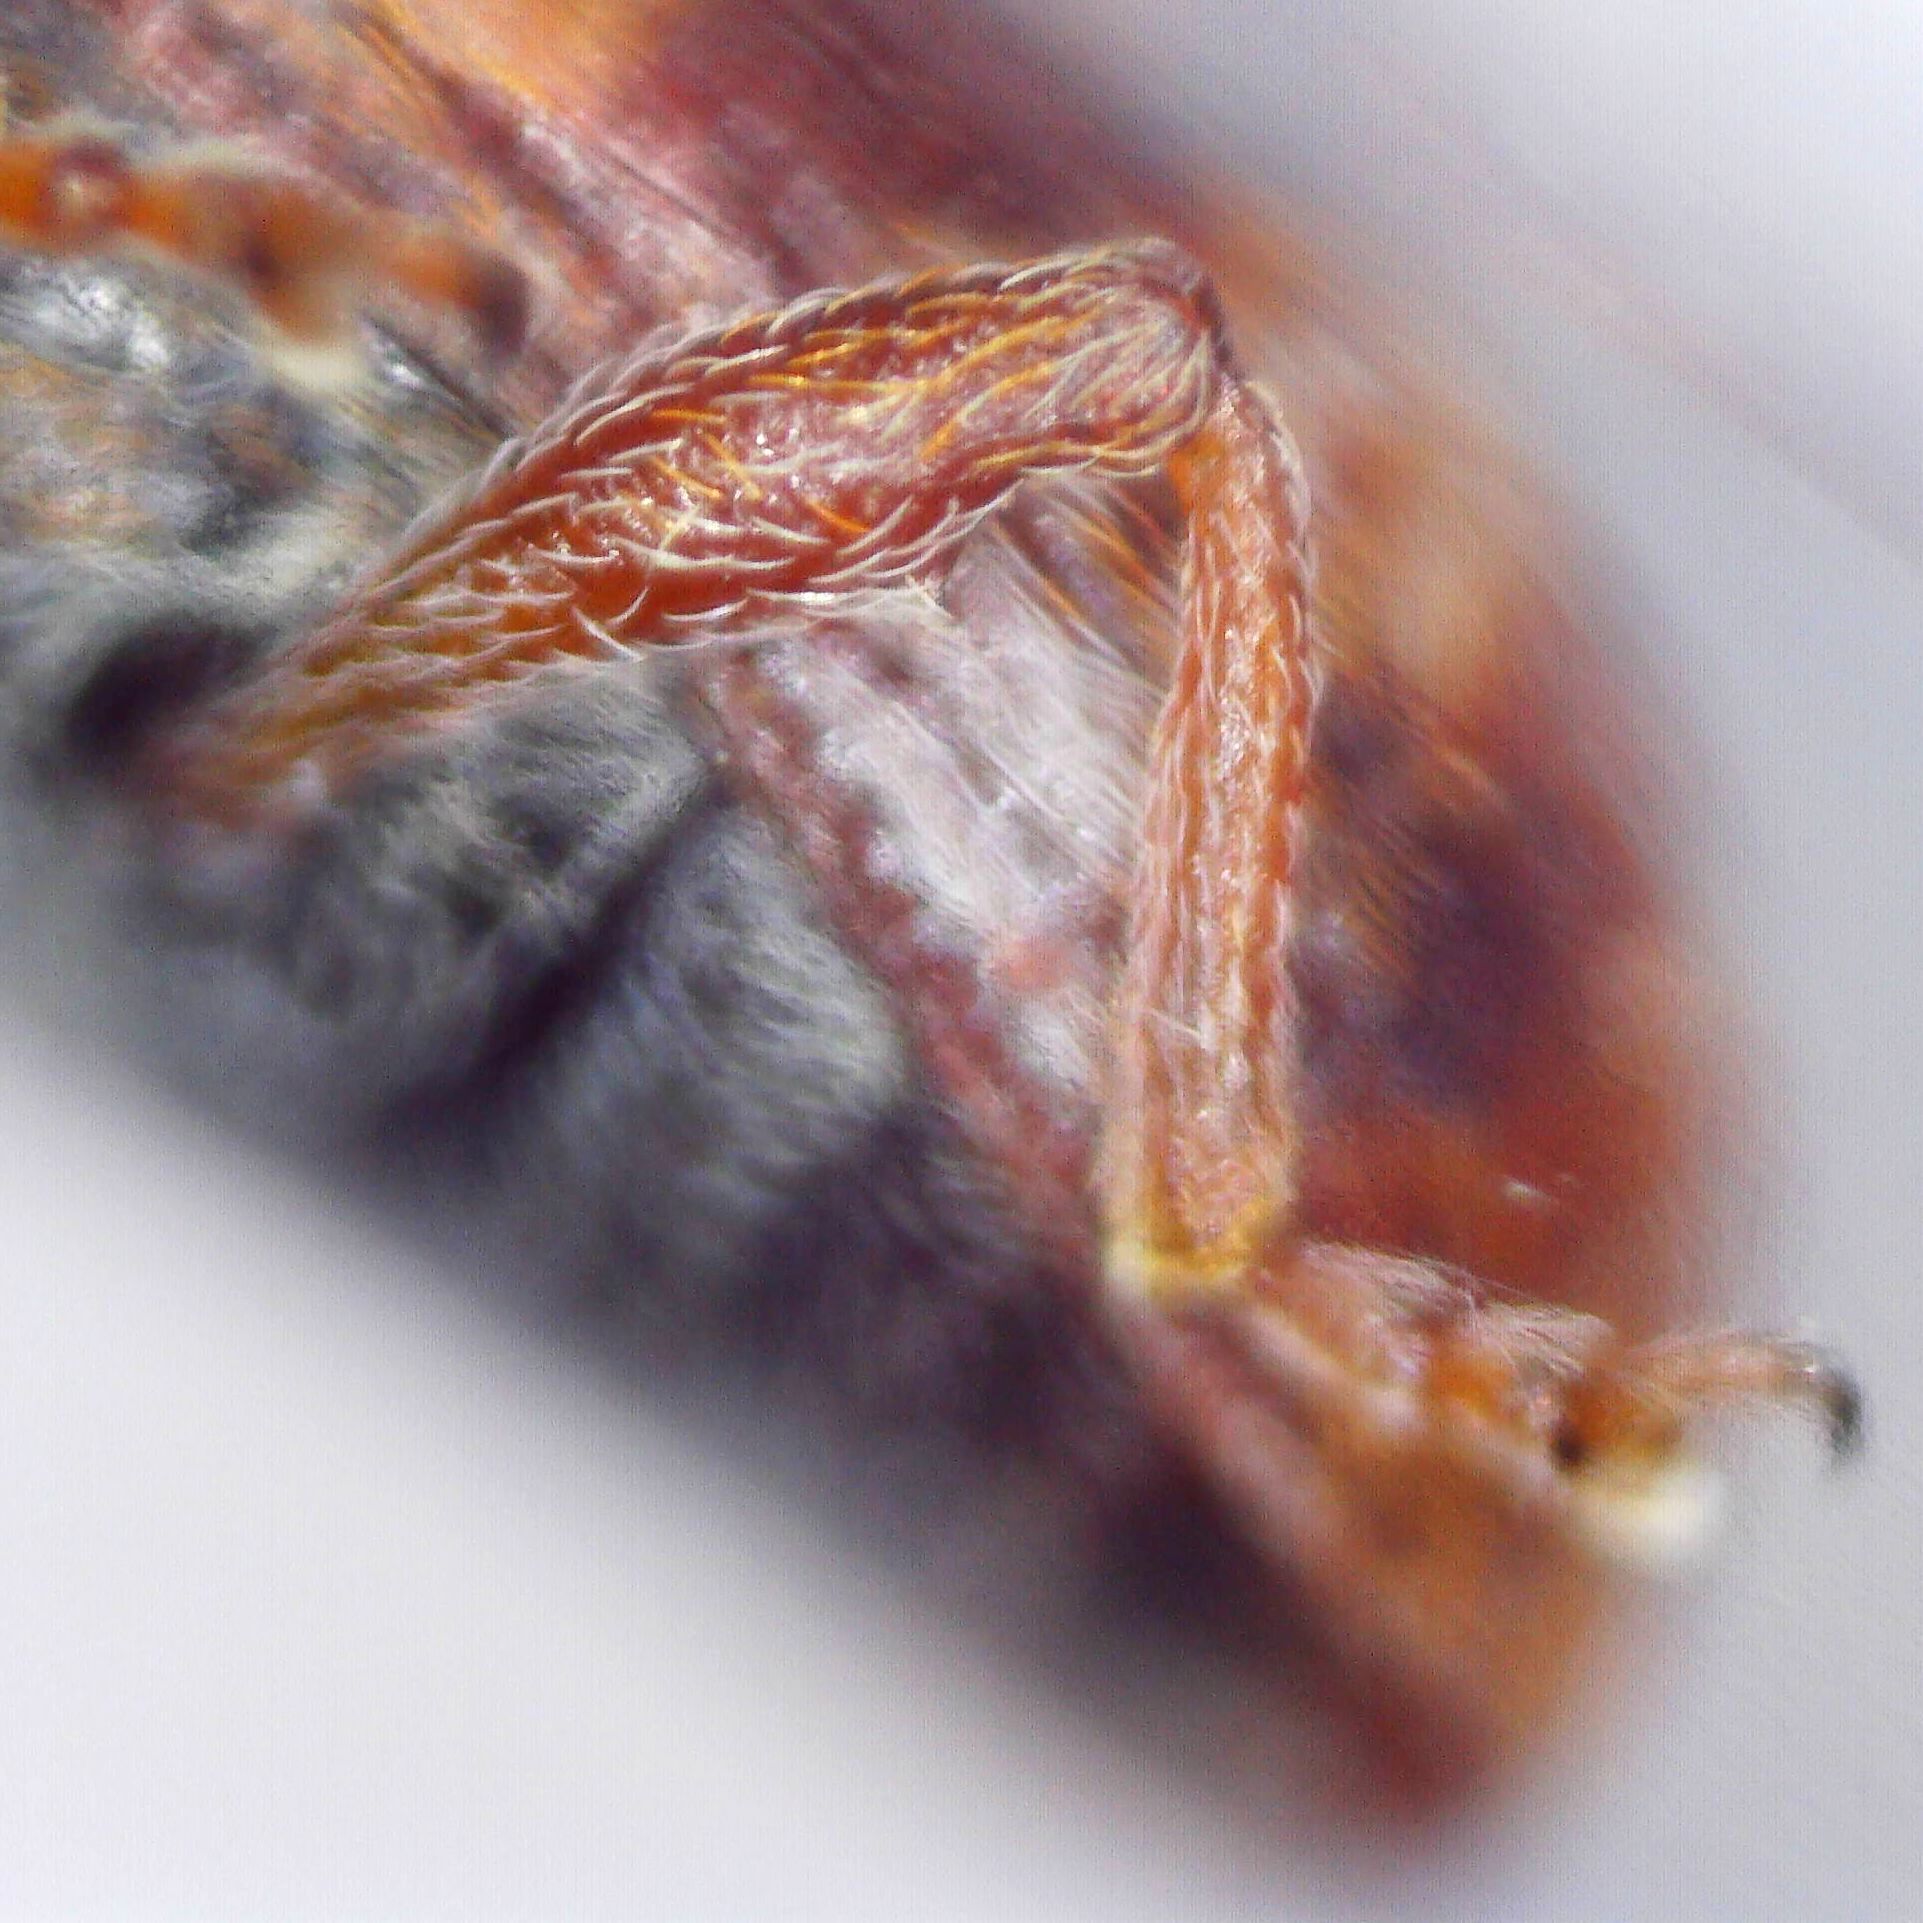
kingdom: Animalia
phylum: Arthropoda
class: Insecta
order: Coleoptera
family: Curculionidae
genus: Anthonomus
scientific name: Anthonomus pedicularius
